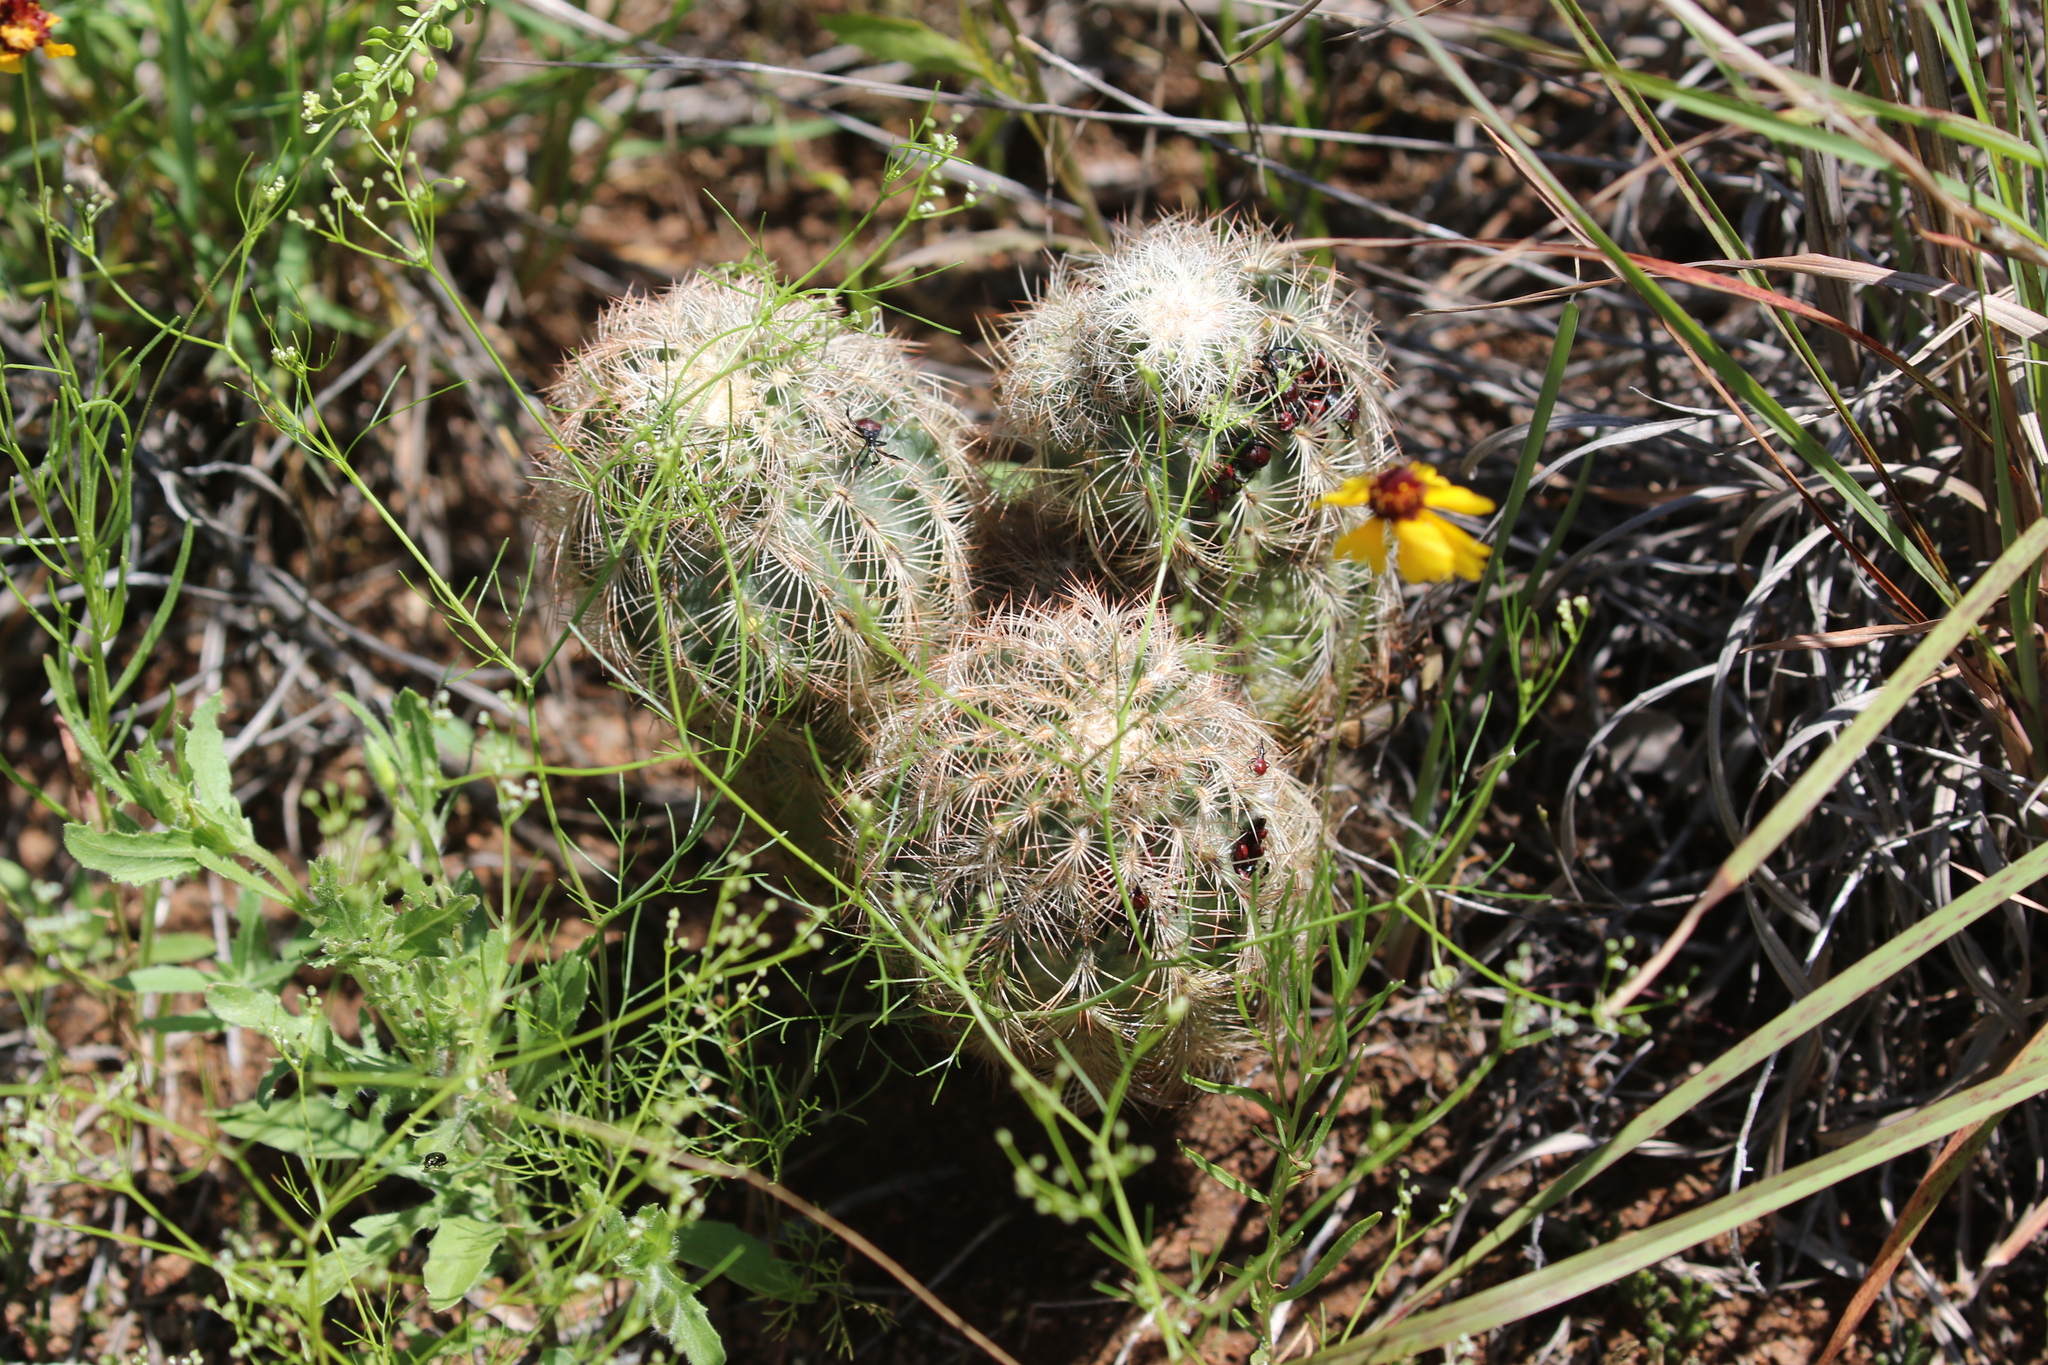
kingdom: Plantae
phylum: Tracheophyta
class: Magnoliopsida
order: Caryophyllales
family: Cactaceae
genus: Echinocereus
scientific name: Echinocereus reichenbachii
